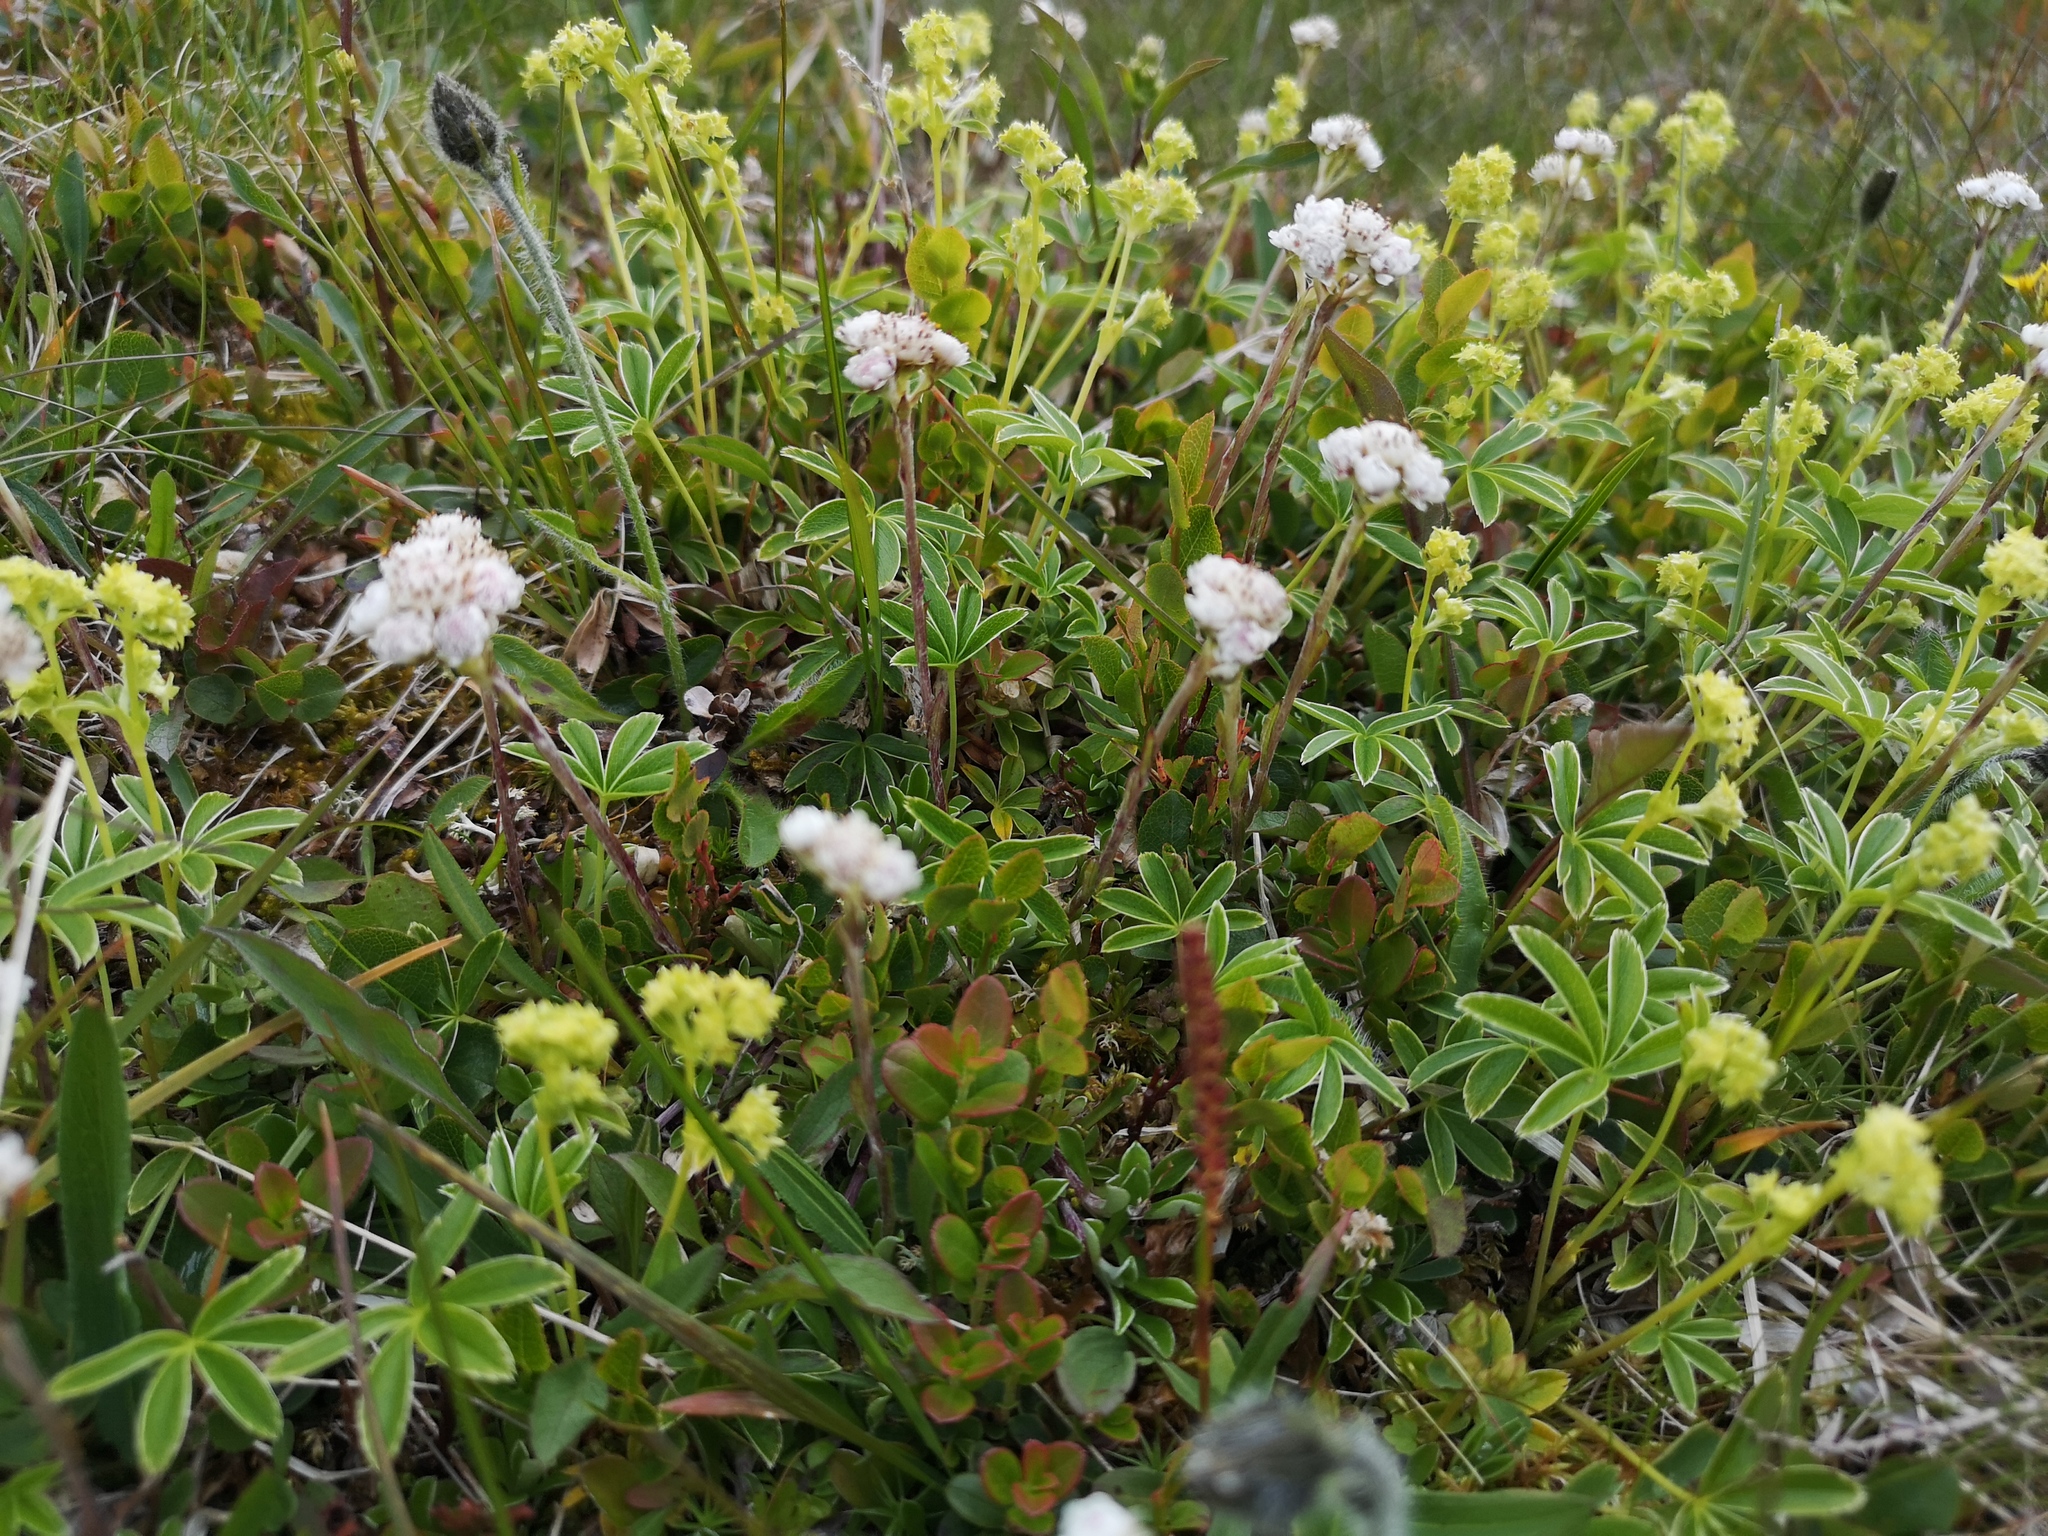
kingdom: Plantae
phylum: Tracheophyta
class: Magnoliopsida
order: Asterales
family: Asteraceae
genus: Antennaria
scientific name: Antennaria dioica
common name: Mountain everlasting
